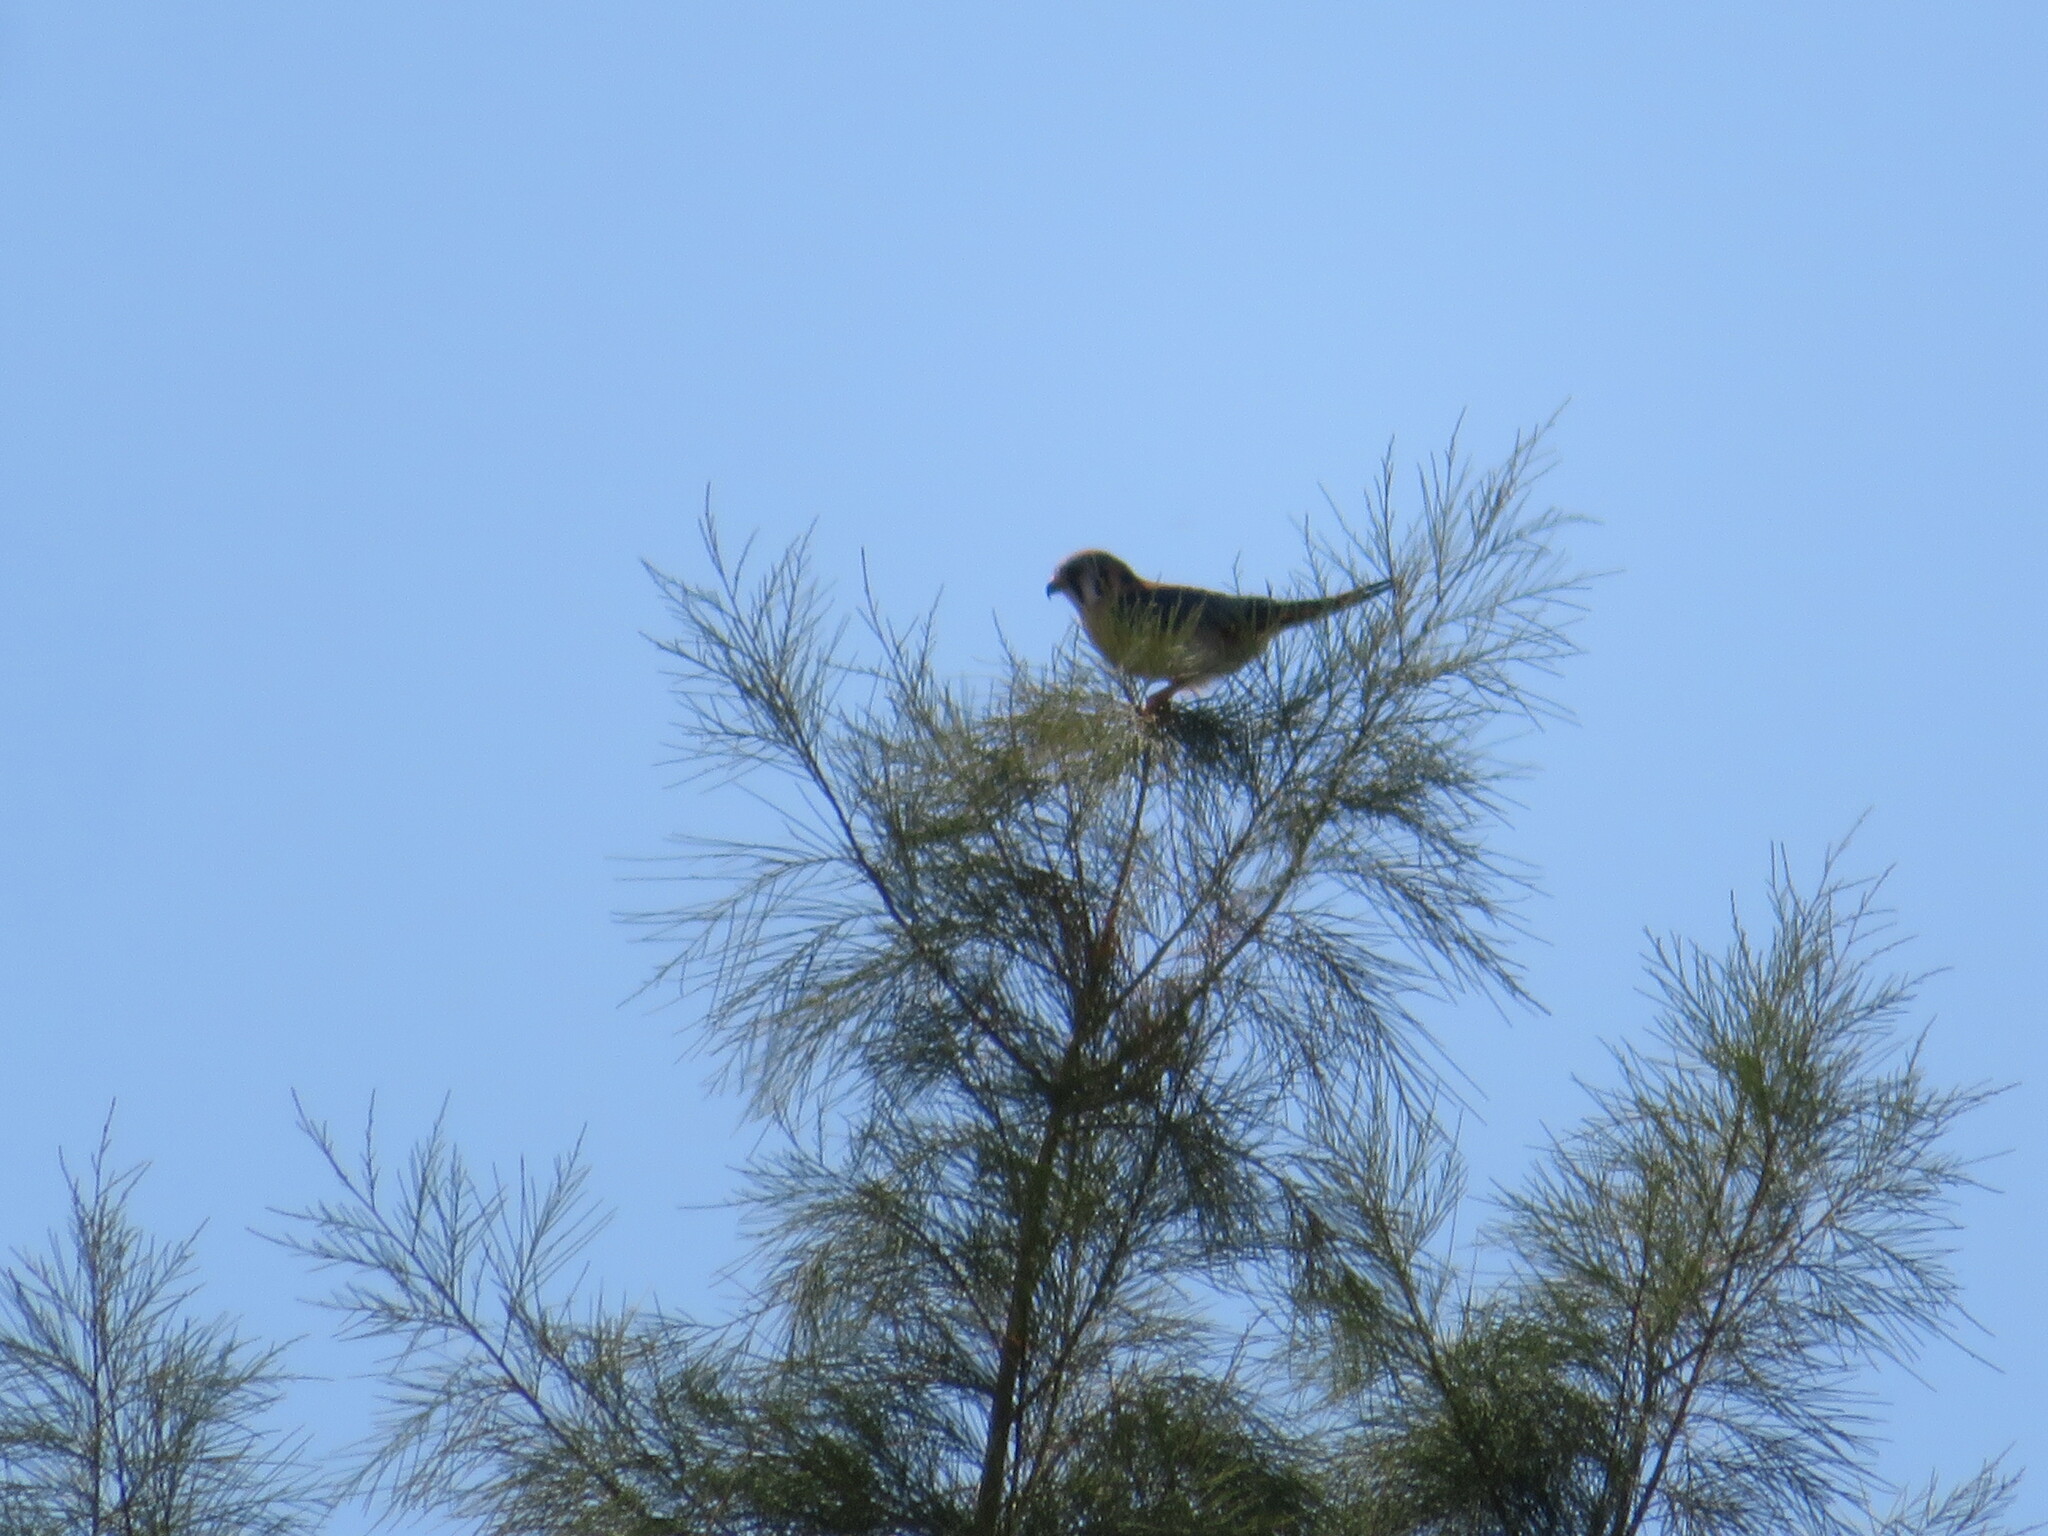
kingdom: Animalia
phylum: Chordata
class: Aves
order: Falconiformes
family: Falconidae
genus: Falco
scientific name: Falco sparverius
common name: American kestrel
